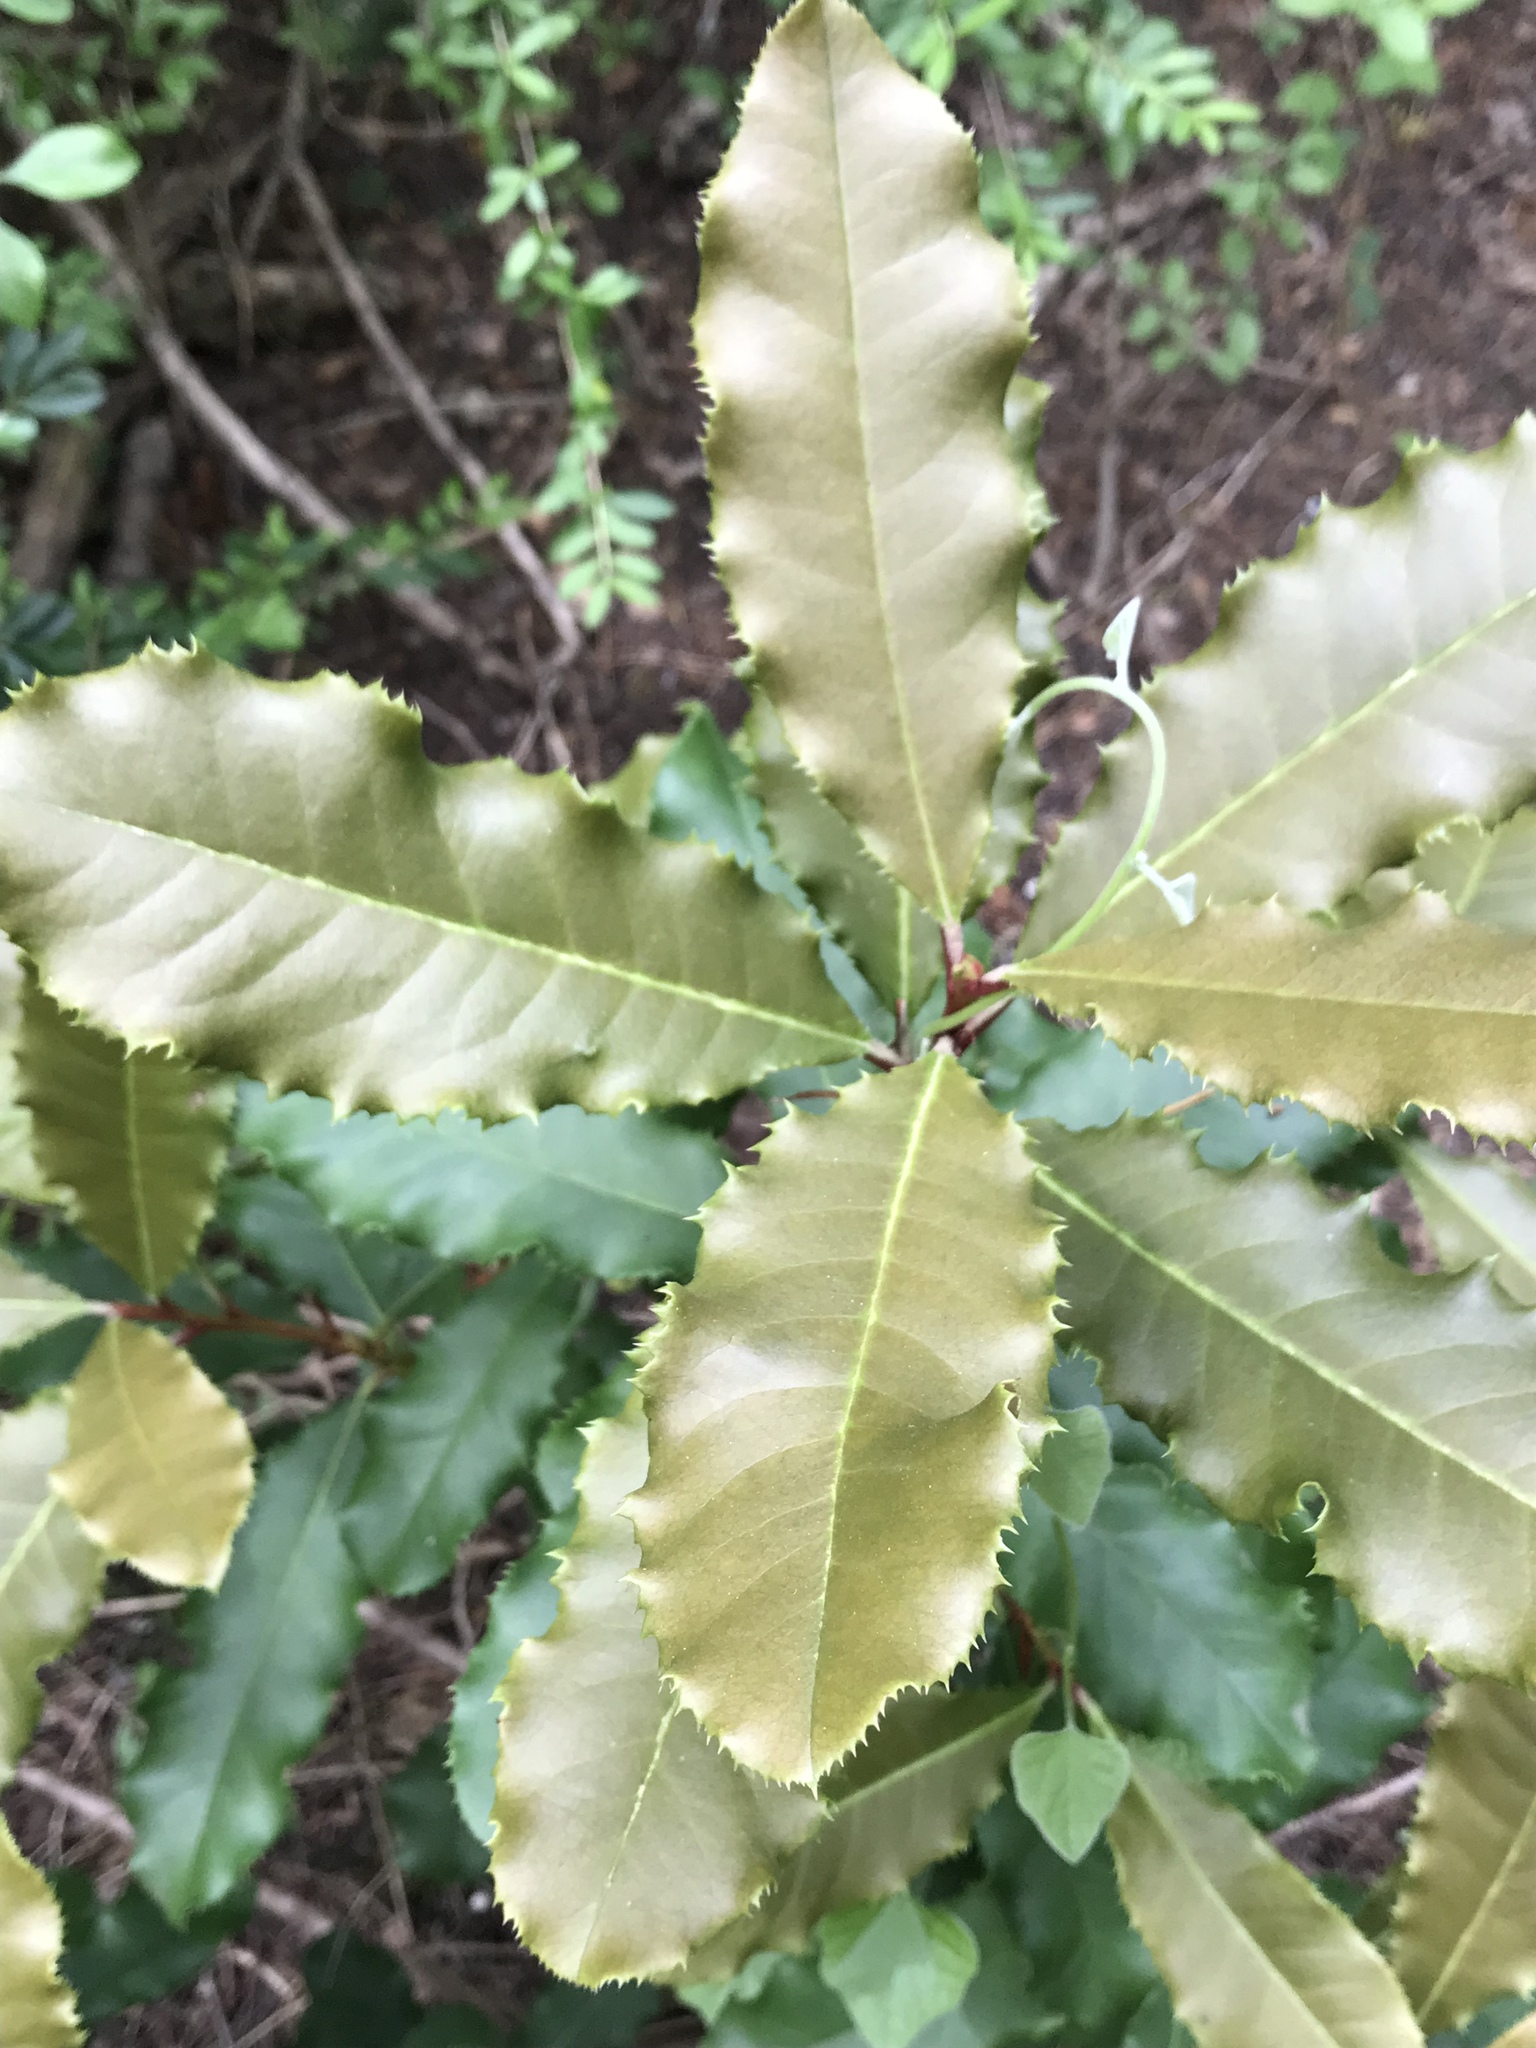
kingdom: Plantae
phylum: Tracheophyta
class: Magnoliopsida
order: Rosales
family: Rosaceae
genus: Photinia
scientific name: Photinia serratifolia
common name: Taiwanese photinia
